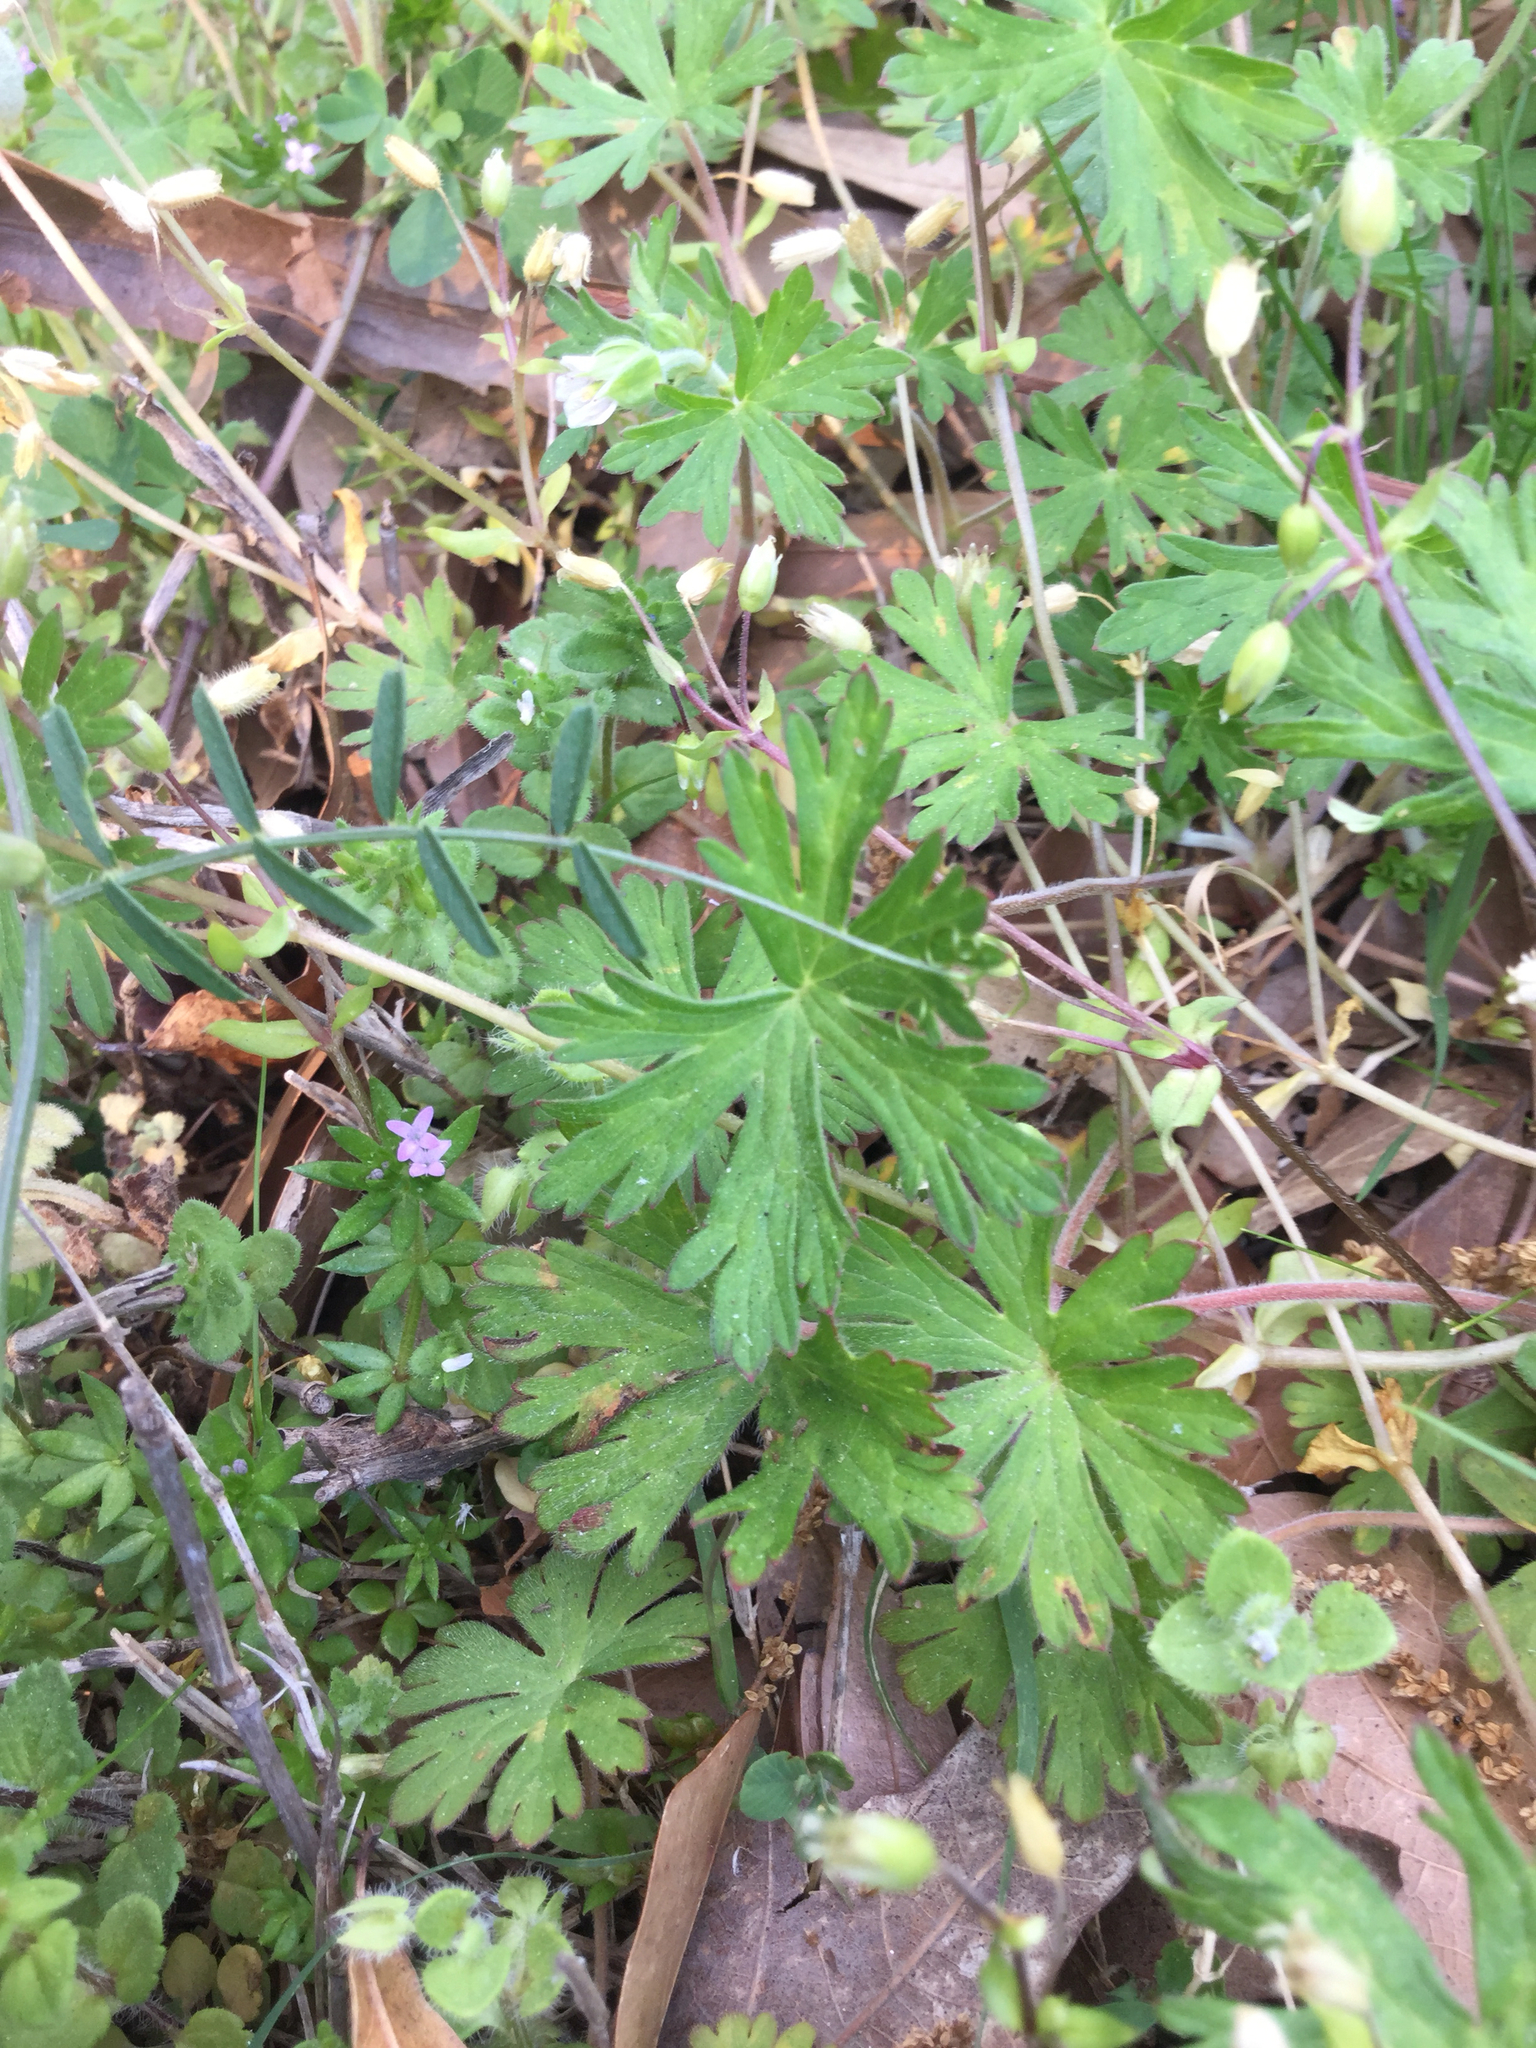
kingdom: Plantae
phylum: Tracheophyta
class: Magnoliopsida
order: Geraniales
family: Geraniaceae
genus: Geranium
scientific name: Geranium carolinianum
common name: Carolina crane's-bill
